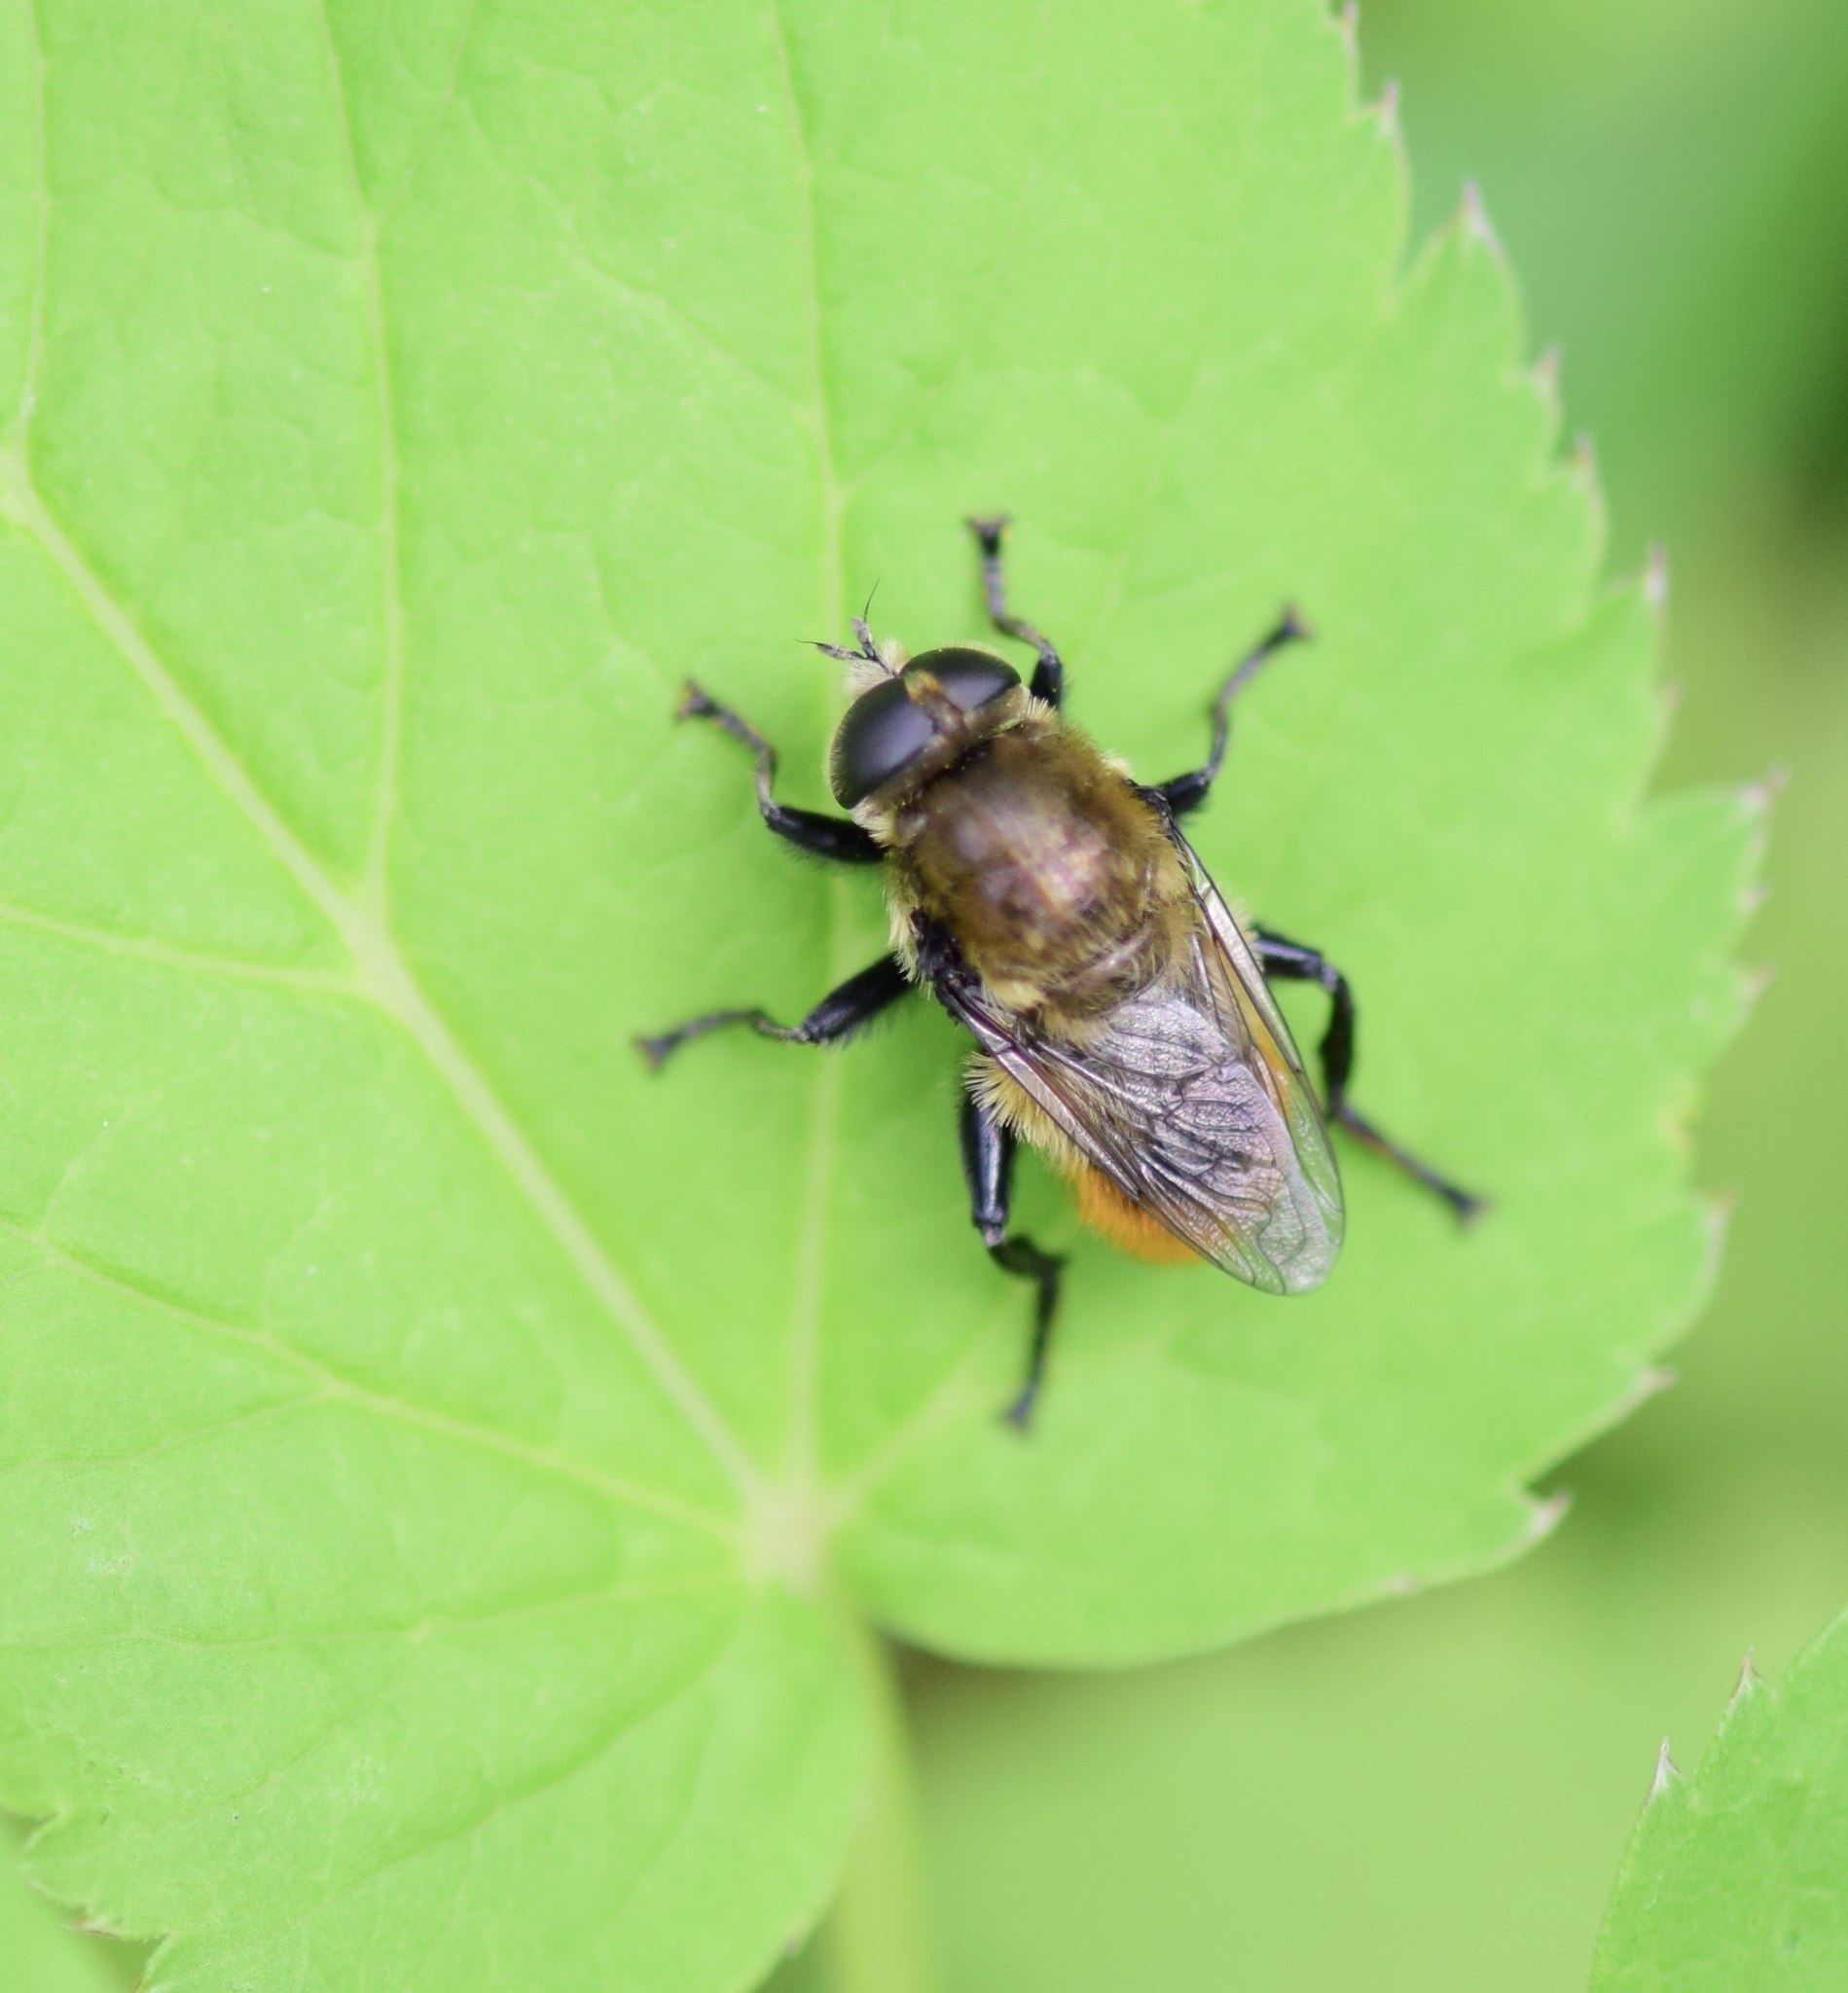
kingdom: Animalia
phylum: Arthropoda
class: Insecta
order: Diptera
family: Syrphidae
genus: Merodon
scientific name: Merodon equestris
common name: Greater bulb-fly
